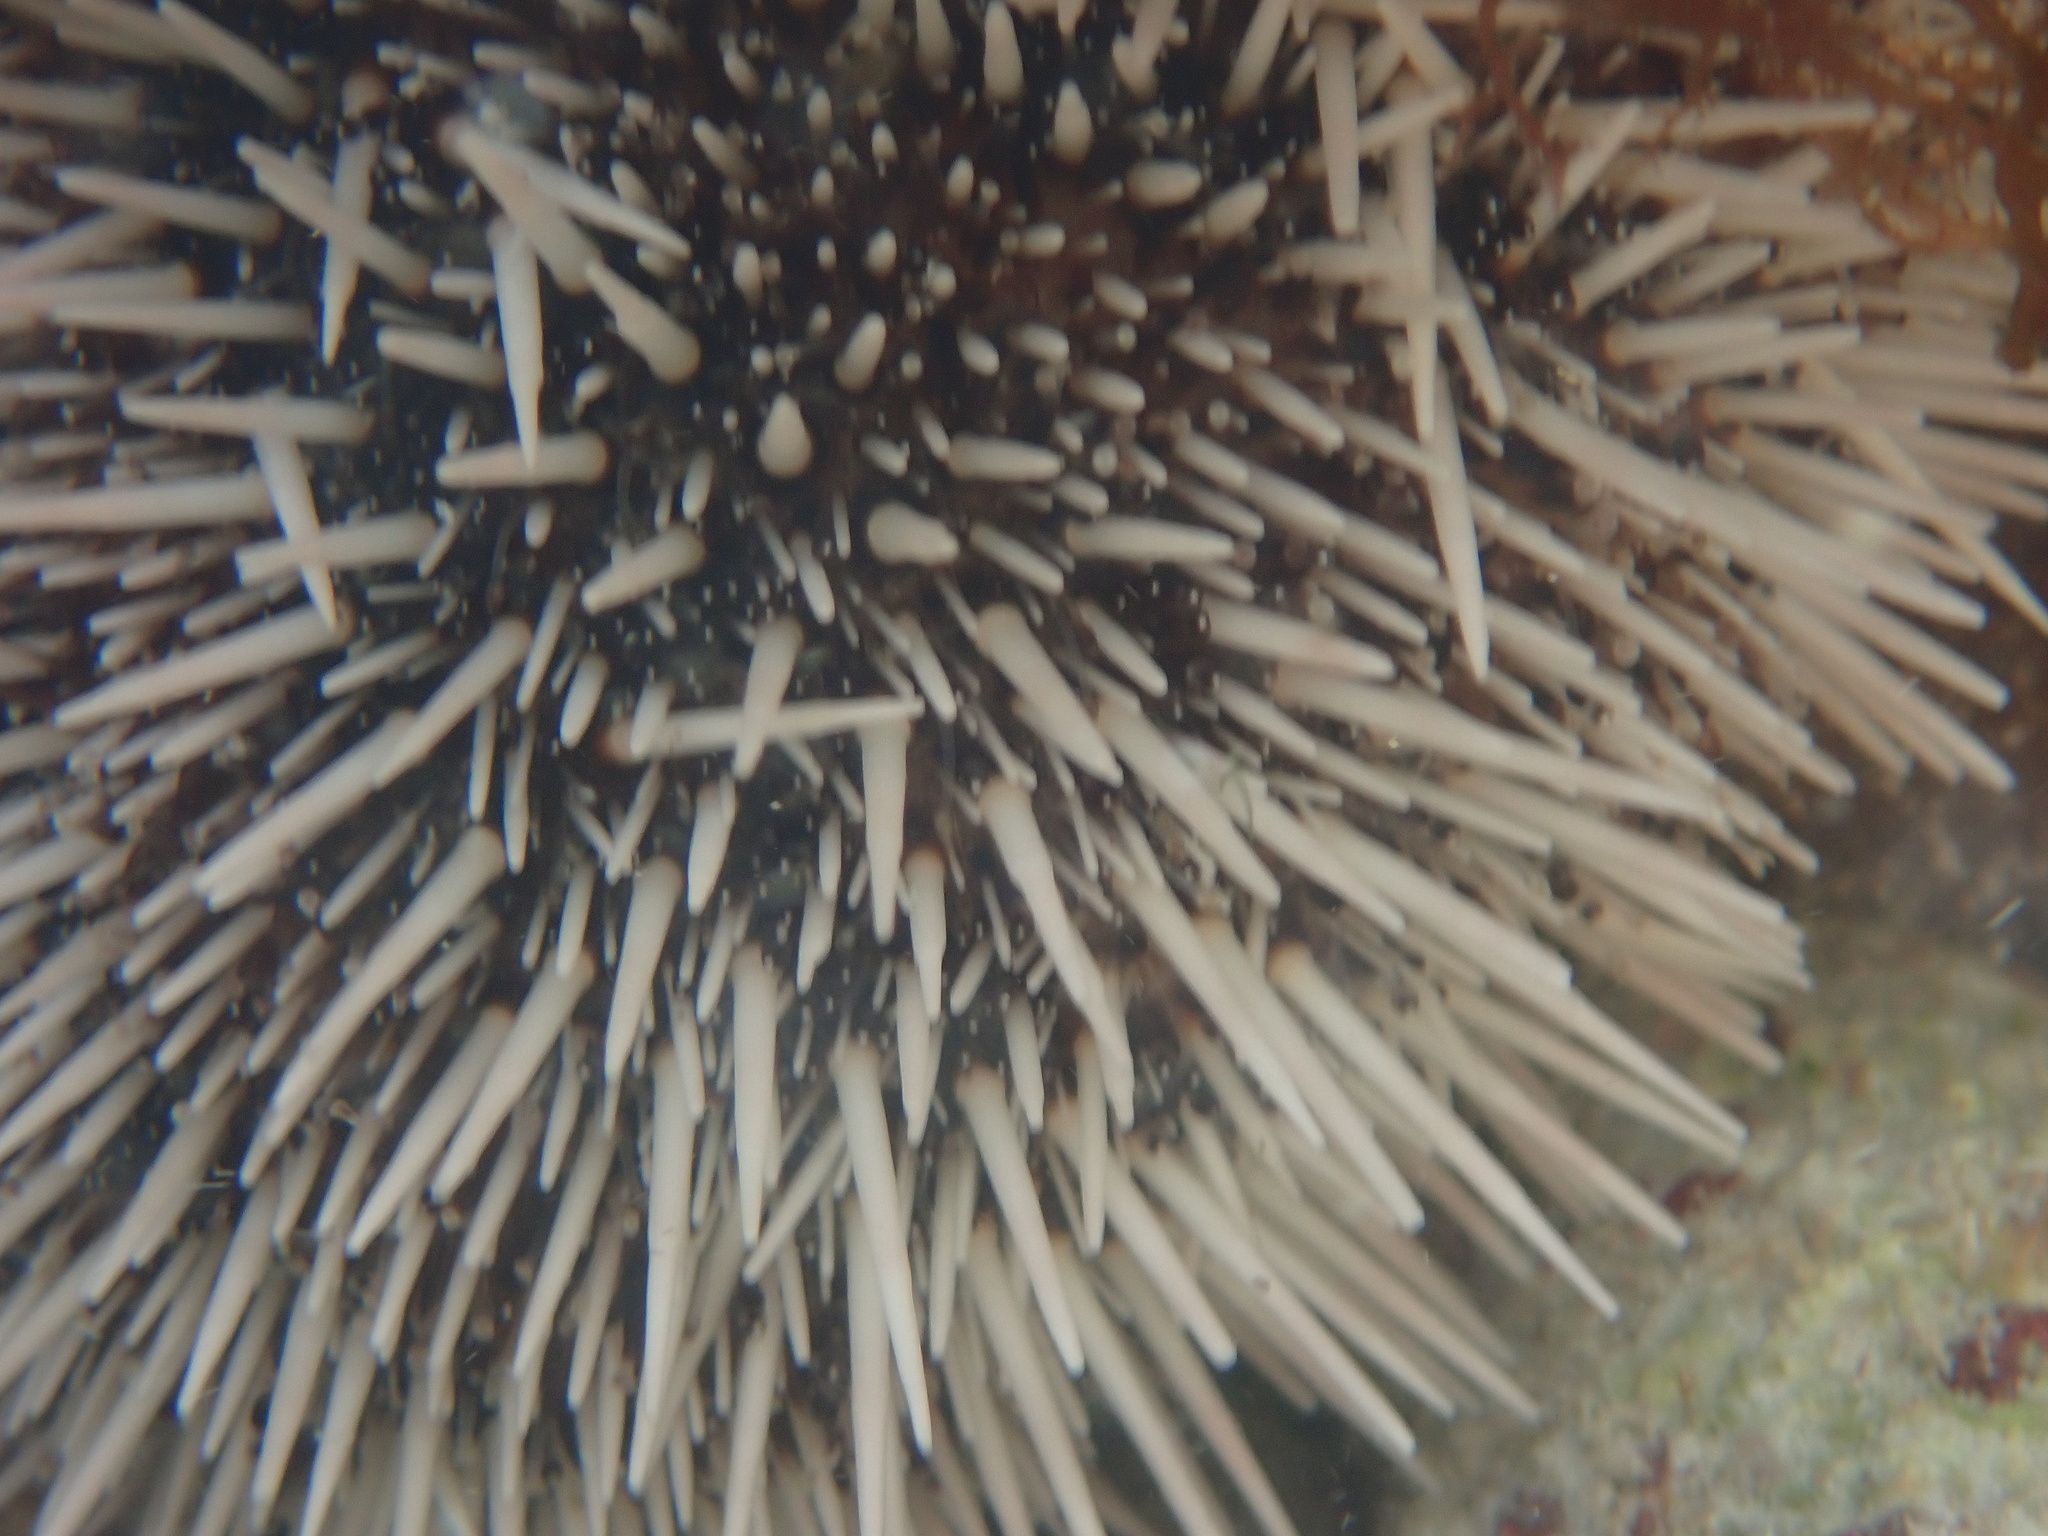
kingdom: Animalia
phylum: Echinodermata
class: Echinoidea
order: Camarodonta
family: Toxopneustidae
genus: Tripneustes
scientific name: Tripneustes ventricosus
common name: West indian sea egg
